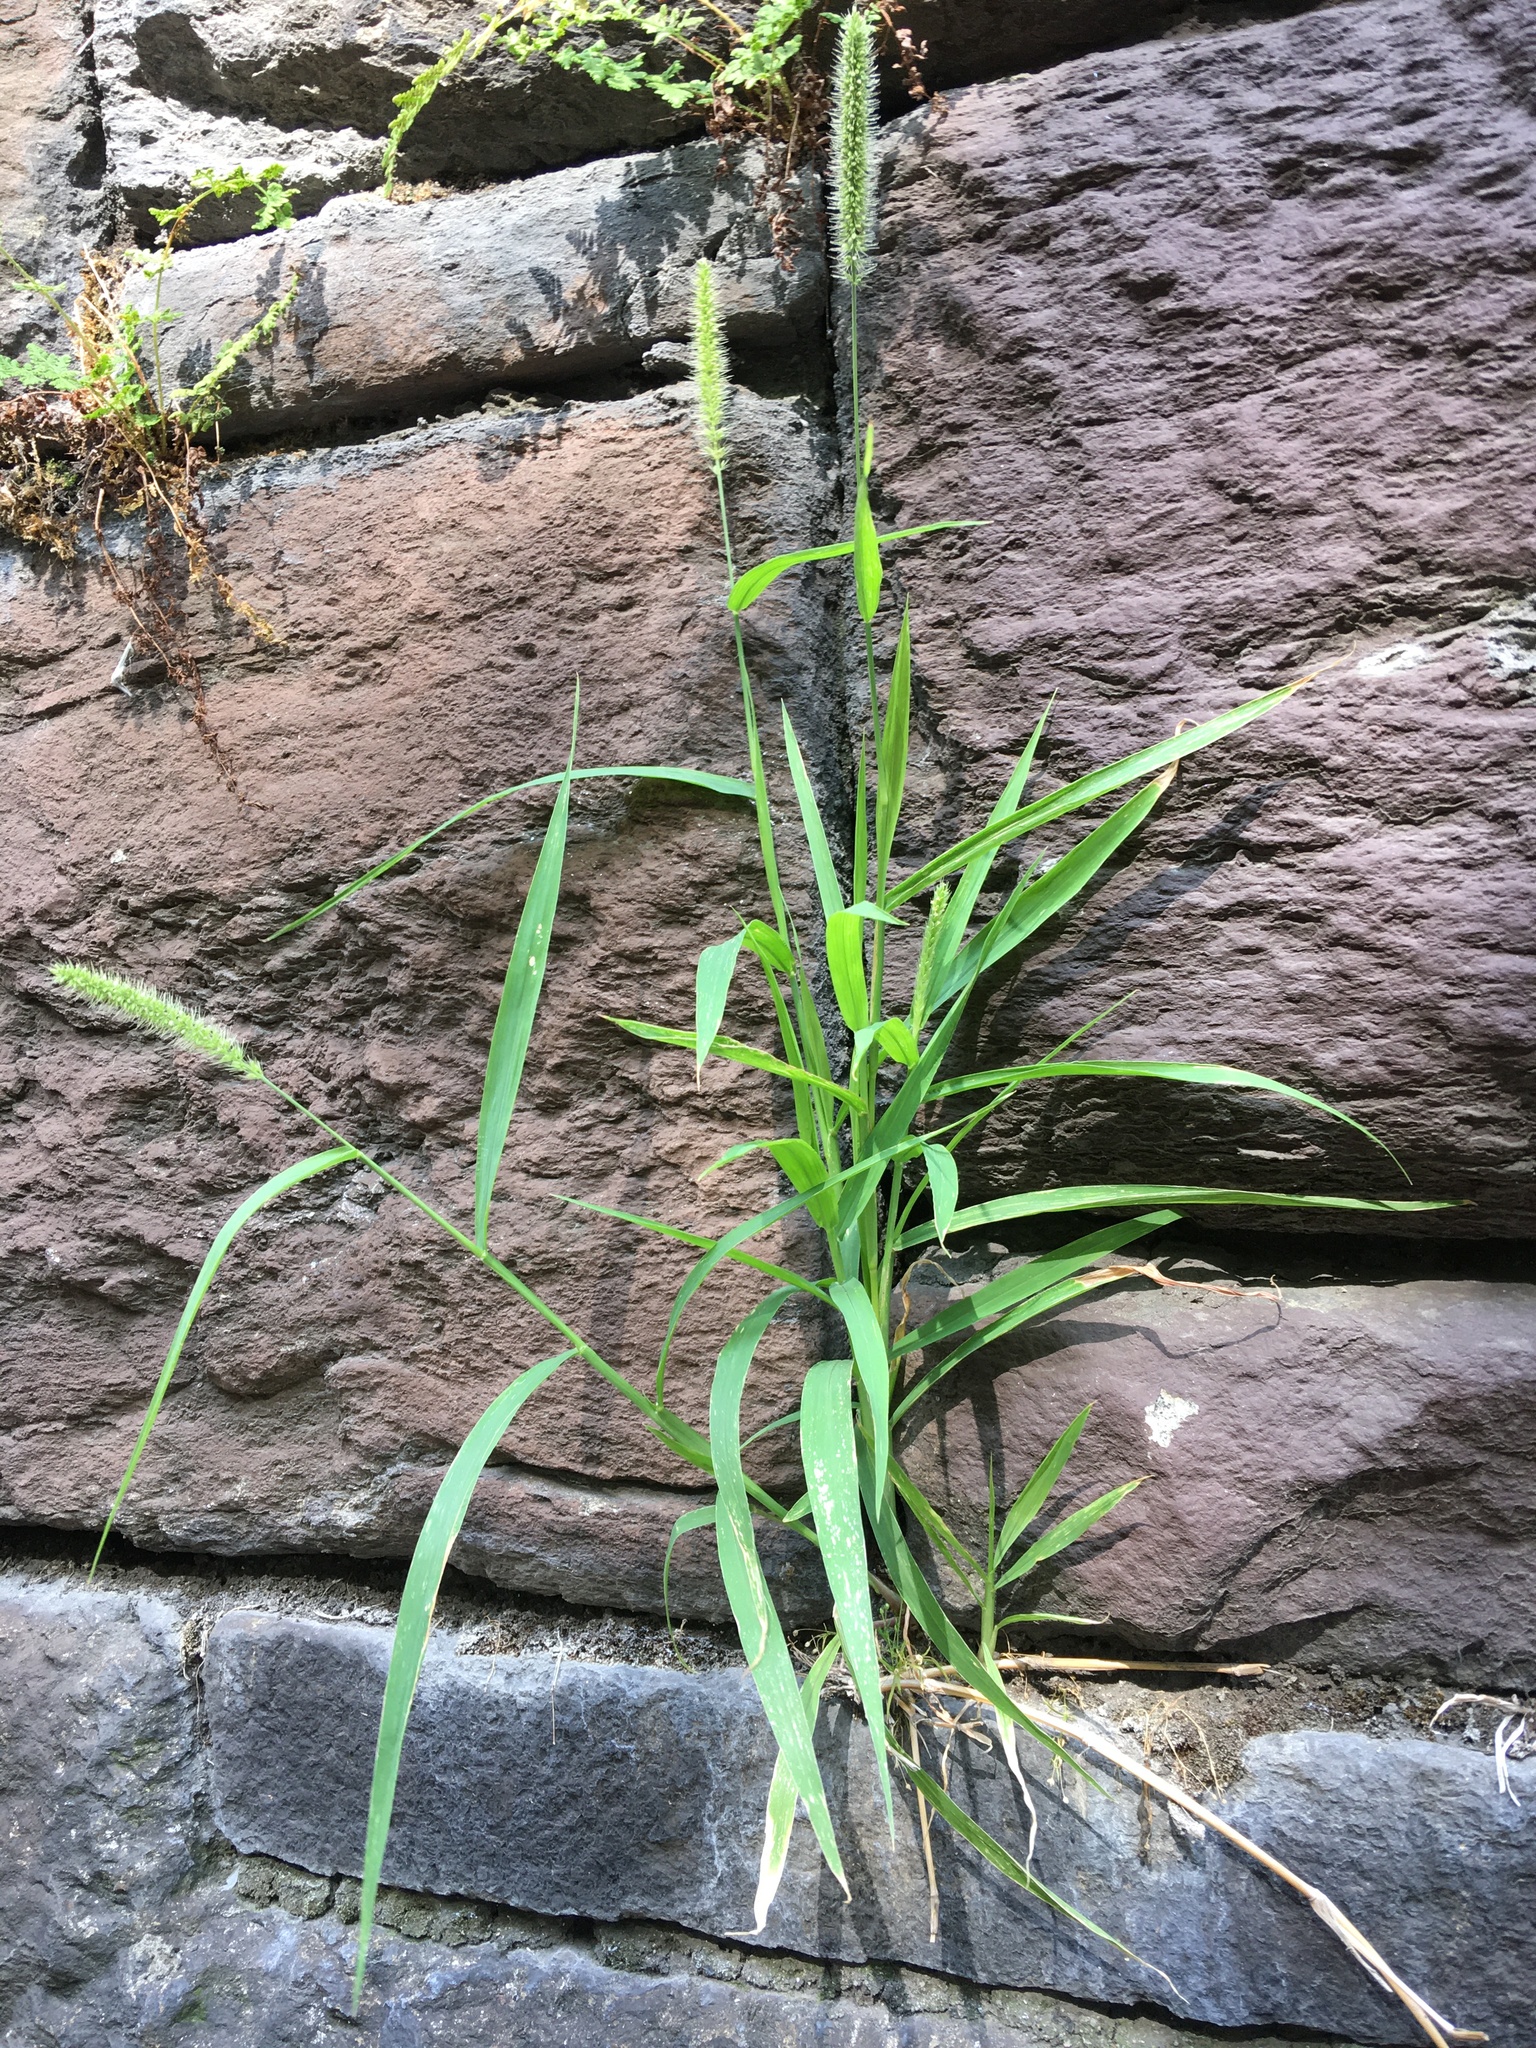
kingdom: Plantae
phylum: Tracheophyta
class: Liliopsida
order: Poales
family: Poaceae
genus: Setaria
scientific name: Setaria viridis
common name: Green bristlegrass
